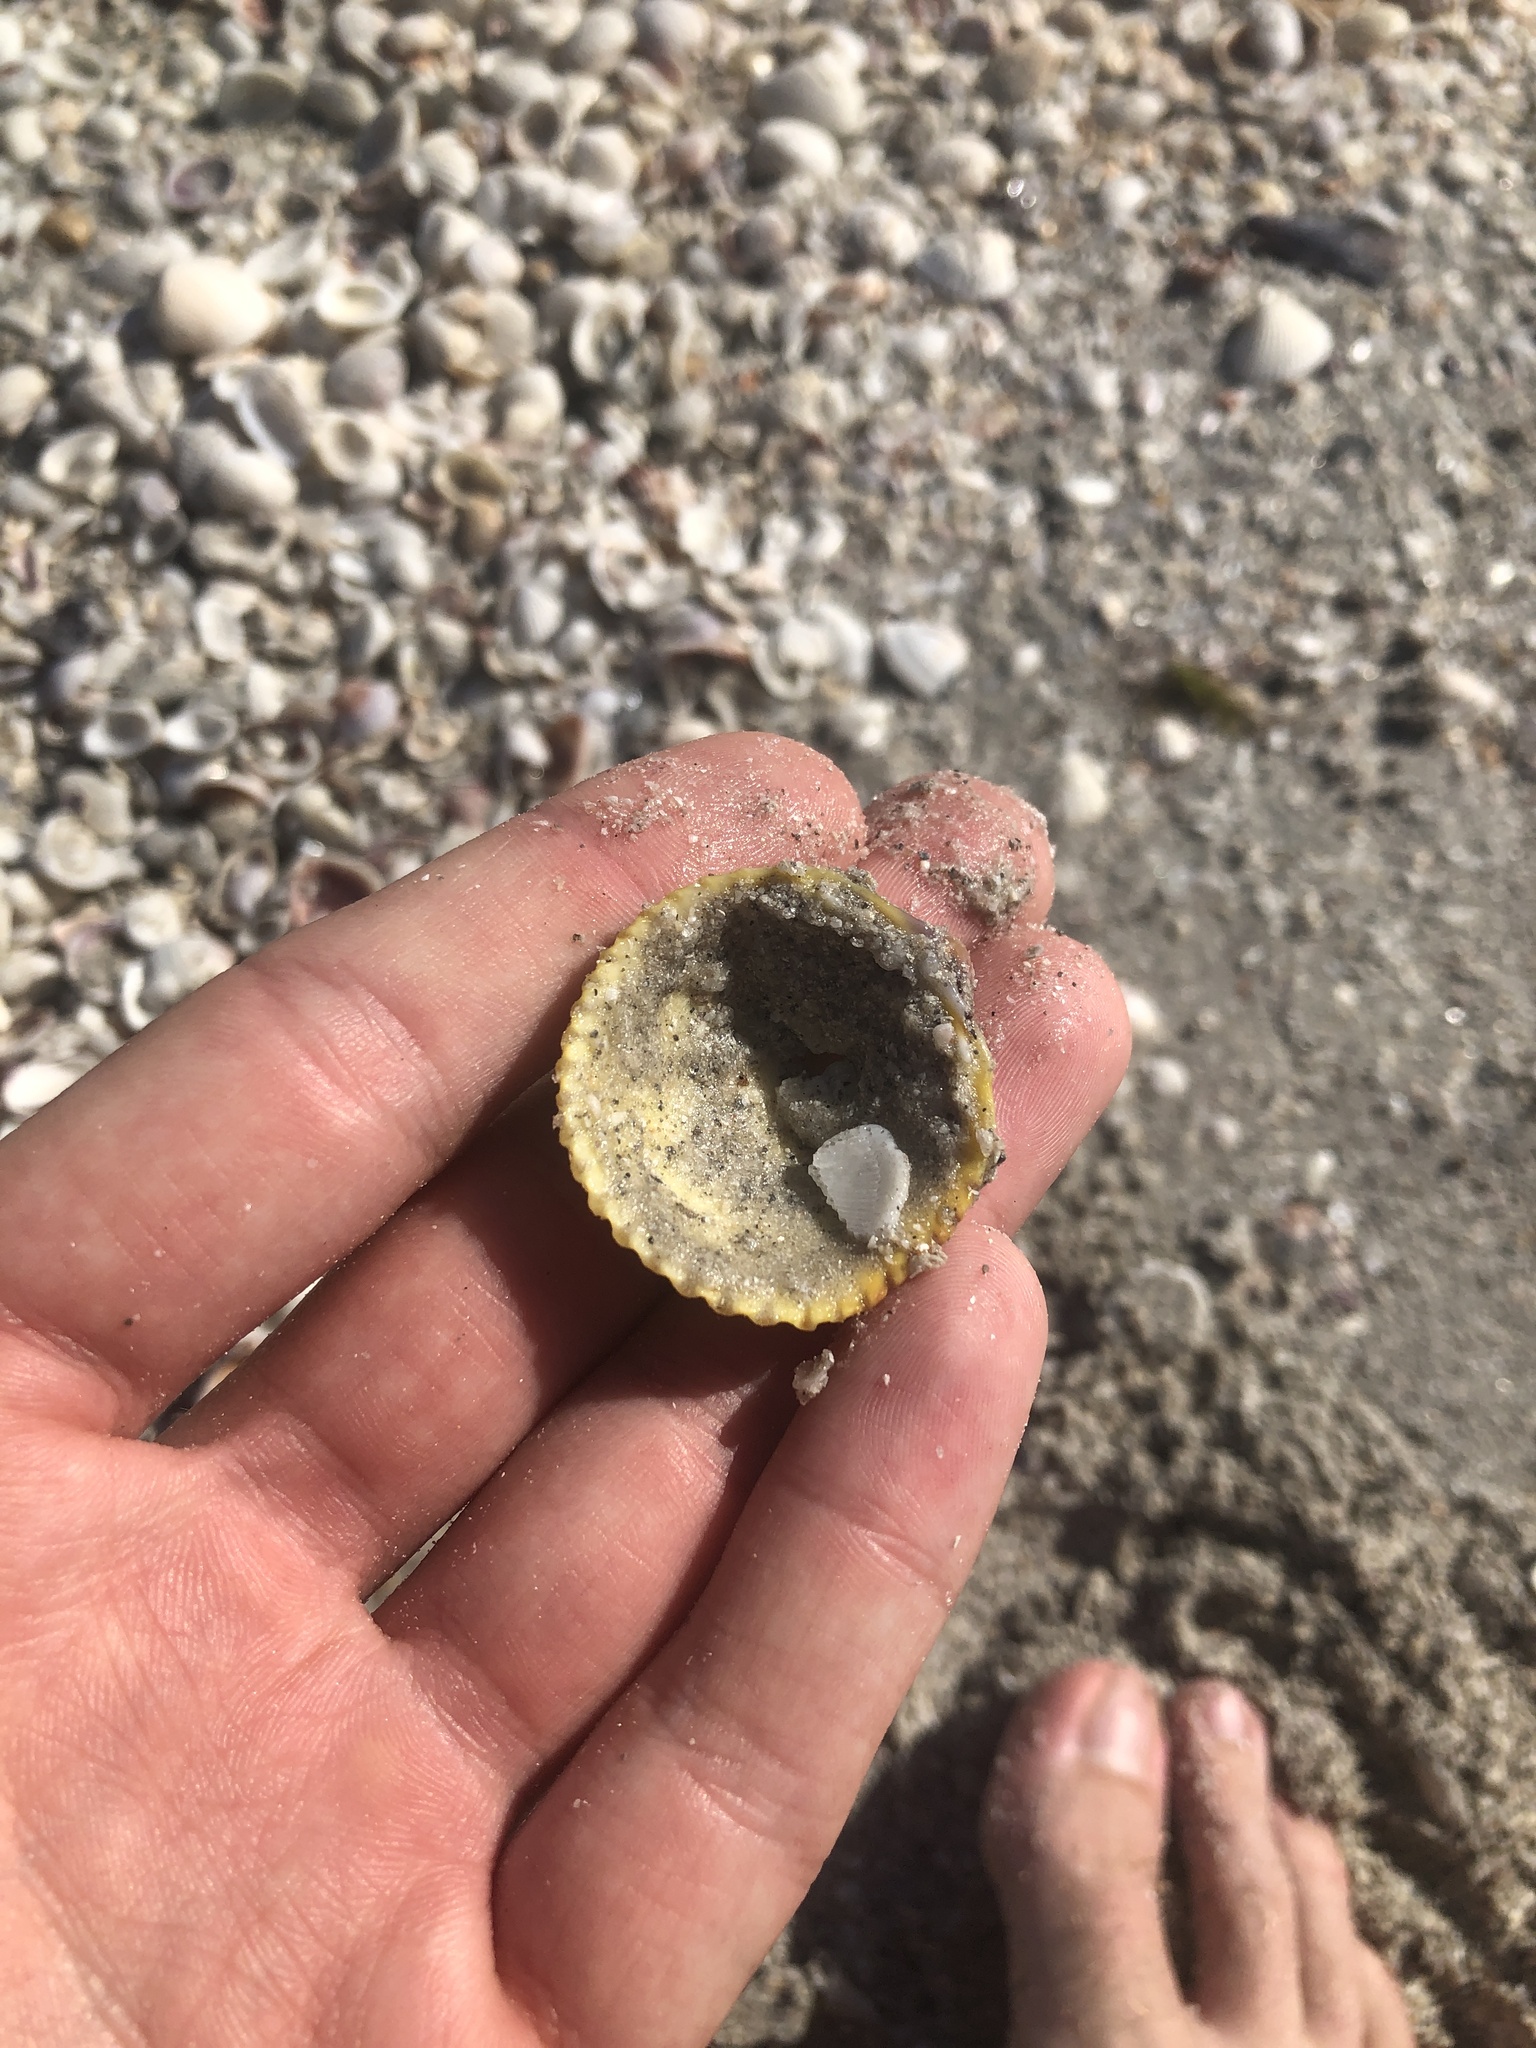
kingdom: Animalia
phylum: Mollusca
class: Bivalvia
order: Cardiida
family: Cardiidae
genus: Dallocardia
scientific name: Dallocardia muricata
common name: Yellow pricklycockle
